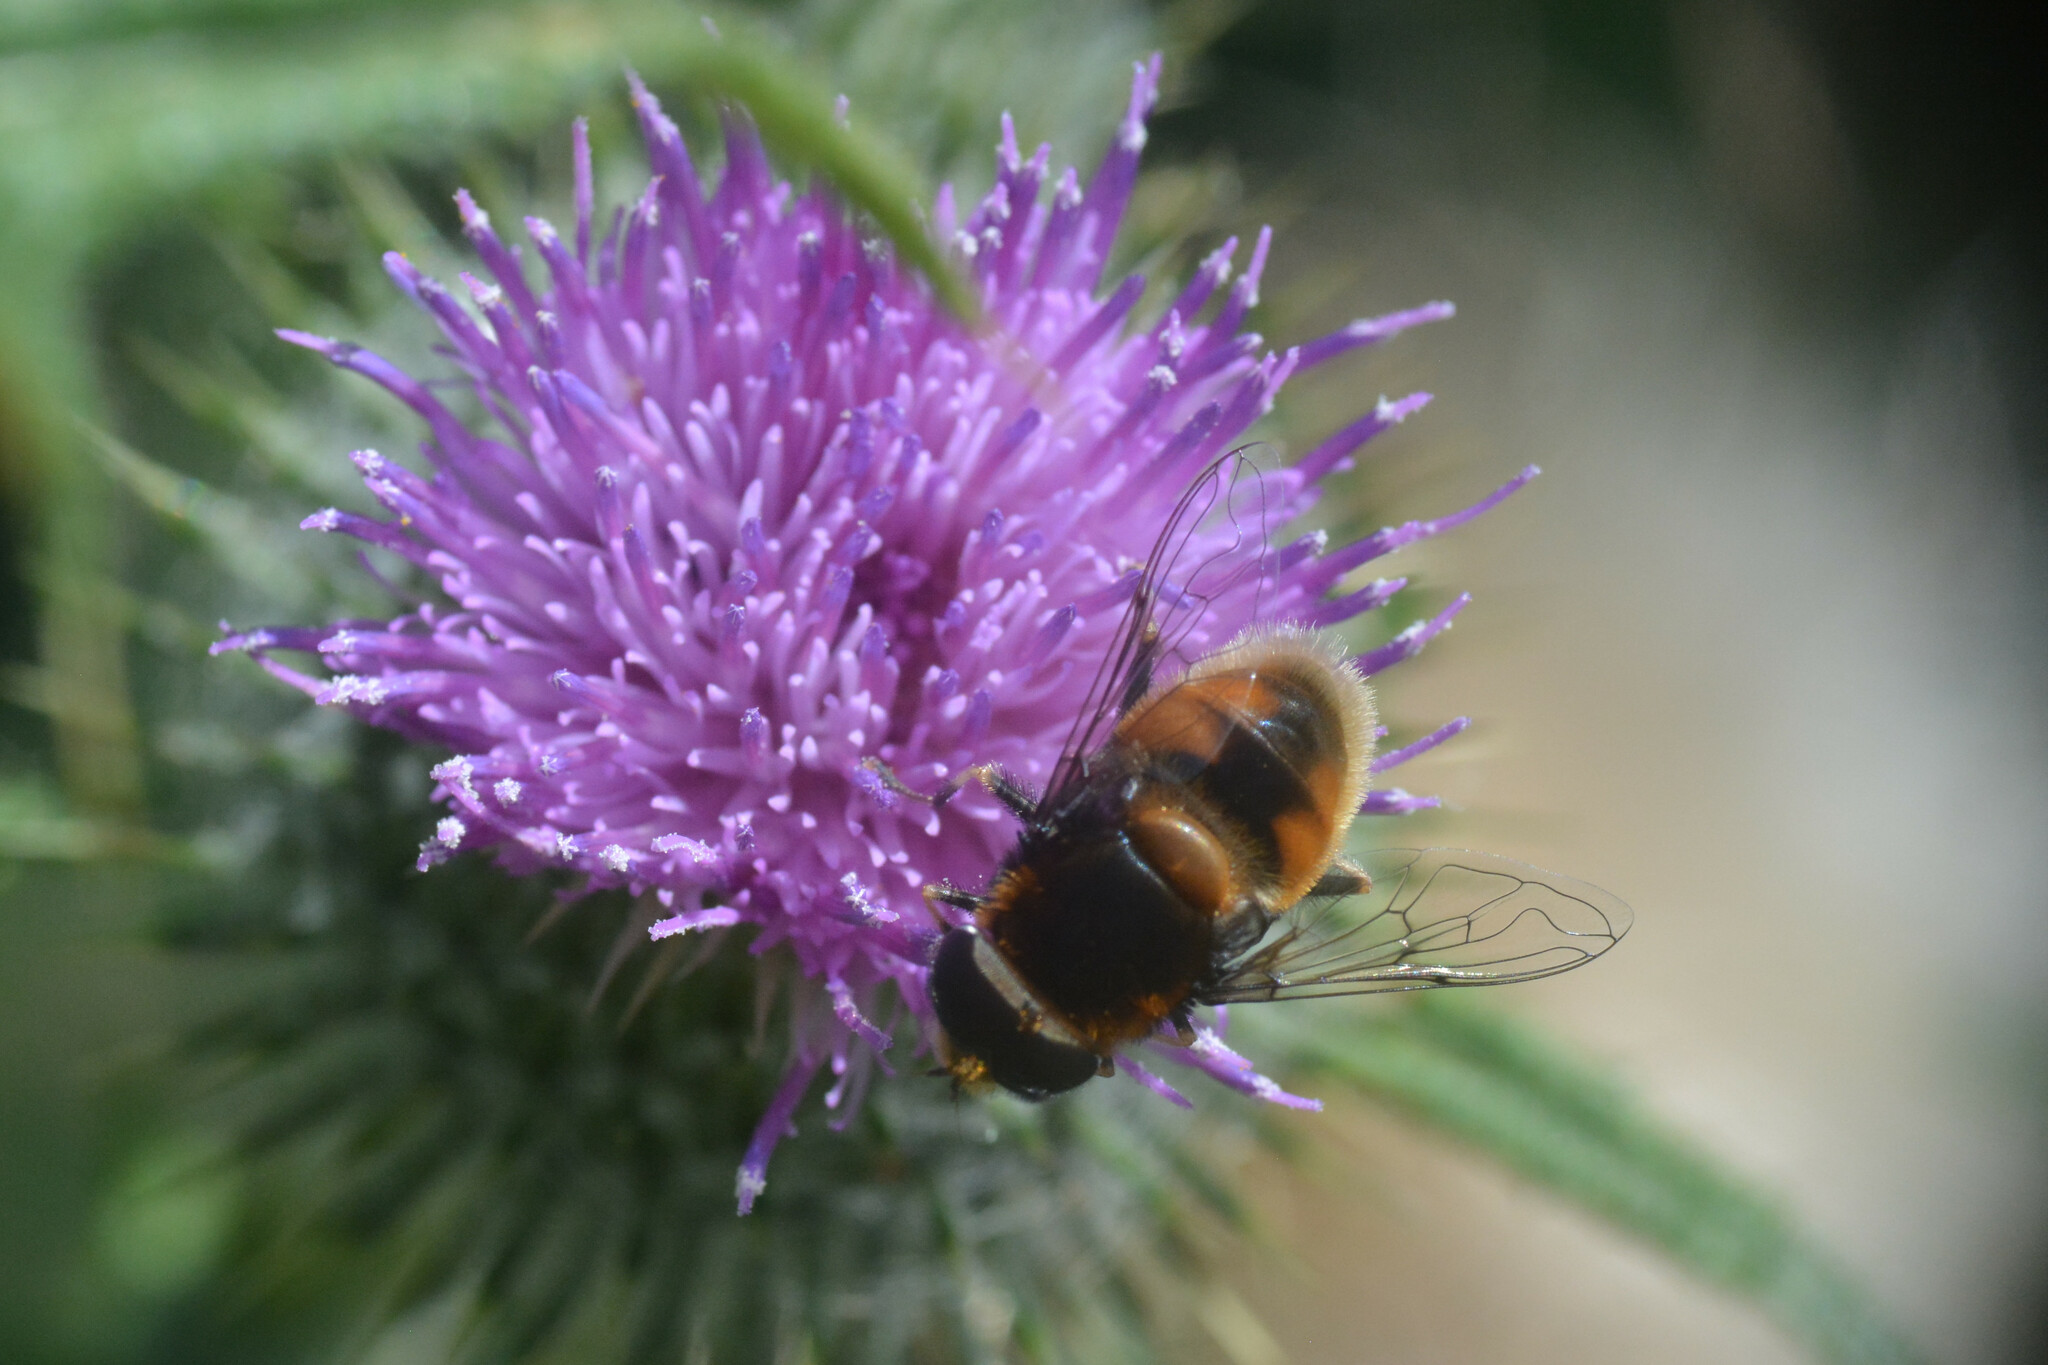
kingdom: Animalia
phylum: Arthropoda
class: Insecta
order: Diptera
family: Syrphidae
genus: Eristalis
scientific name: Eristalis intricaria
